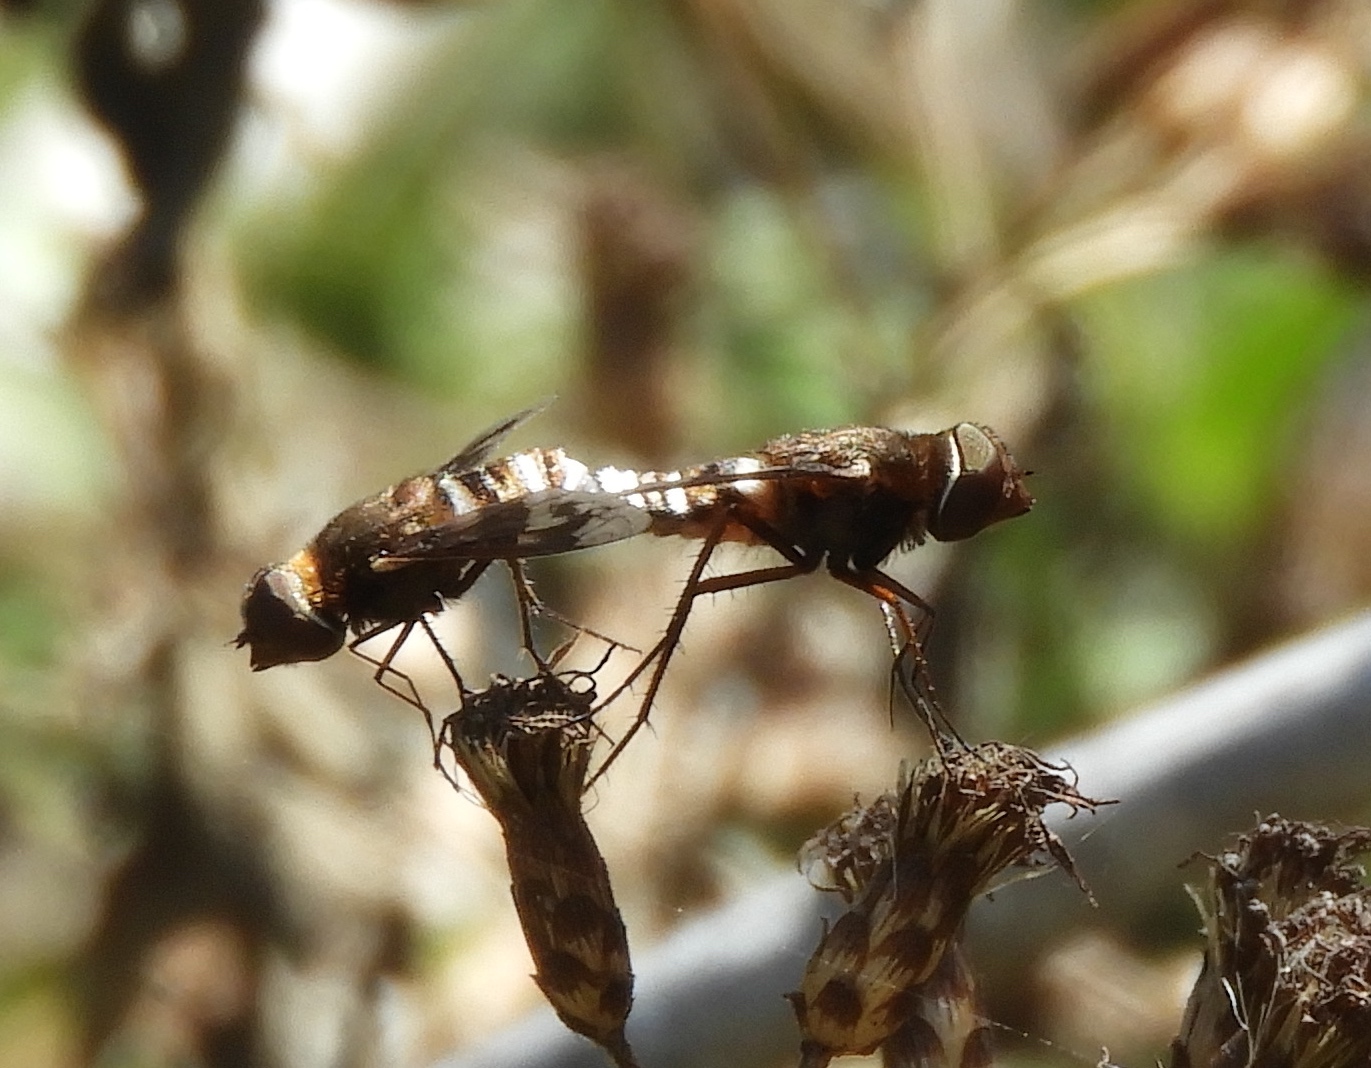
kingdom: Animalia
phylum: Arthropoda
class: Insecta
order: Diptera
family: Bombyliidae
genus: Nyia
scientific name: Nyia
